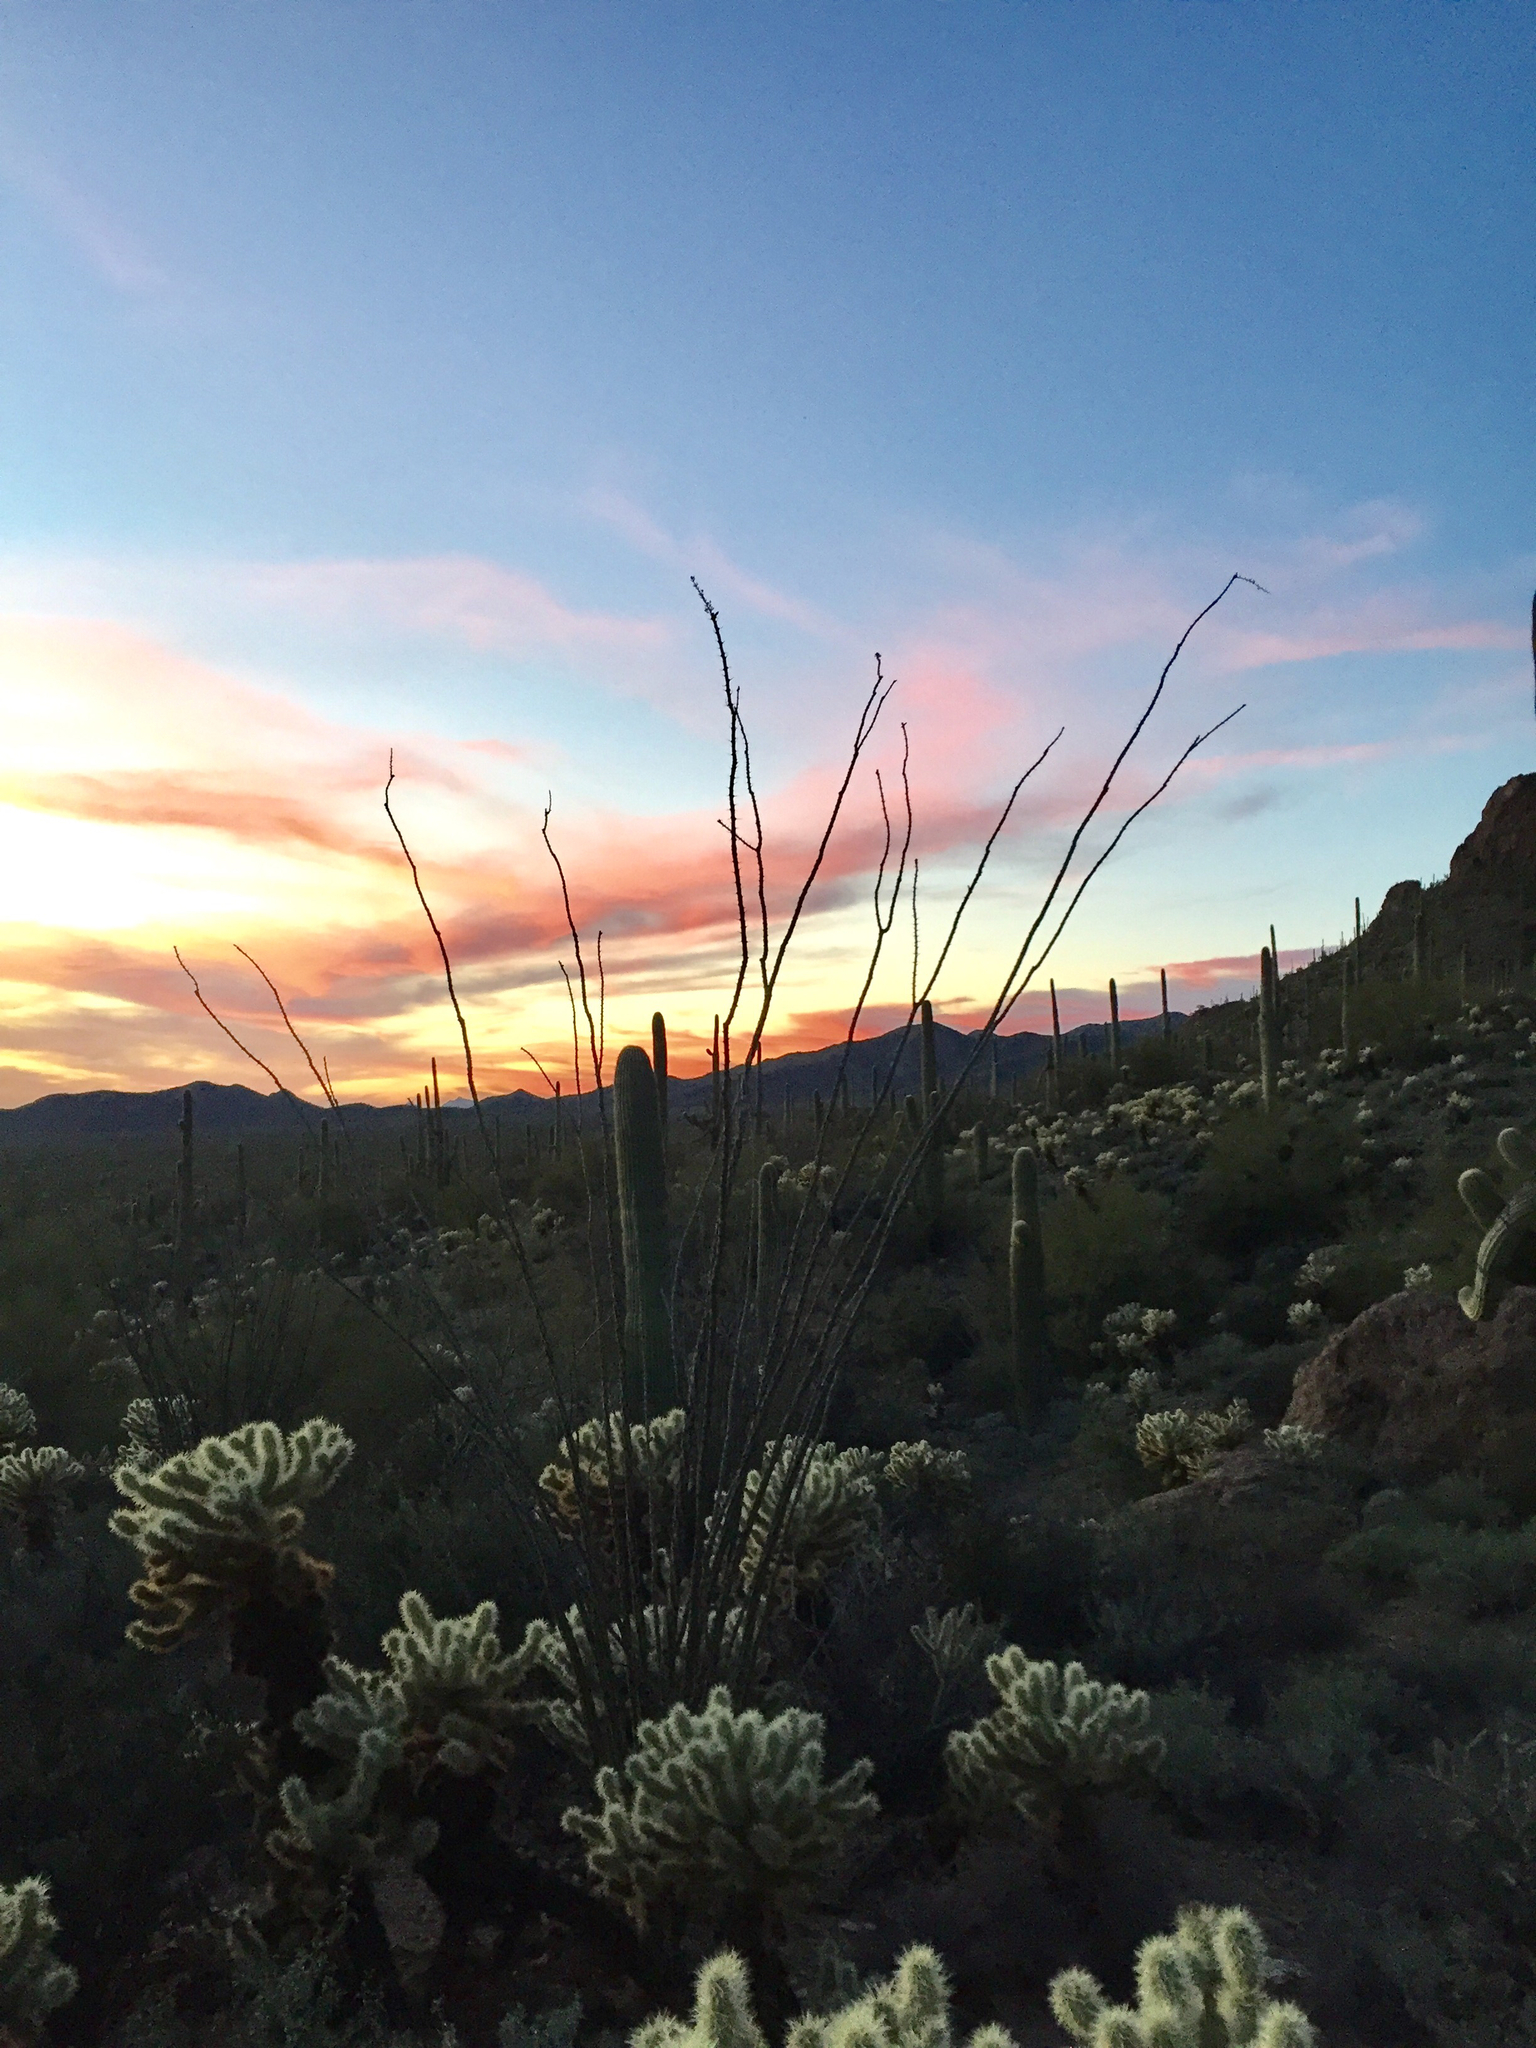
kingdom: Plantae
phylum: Tracheophyta
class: Magnoliopsida
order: Ericales
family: Fouquieriaceae
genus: Fouquieria
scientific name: Fouquieria splendens
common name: Vine-cactus
